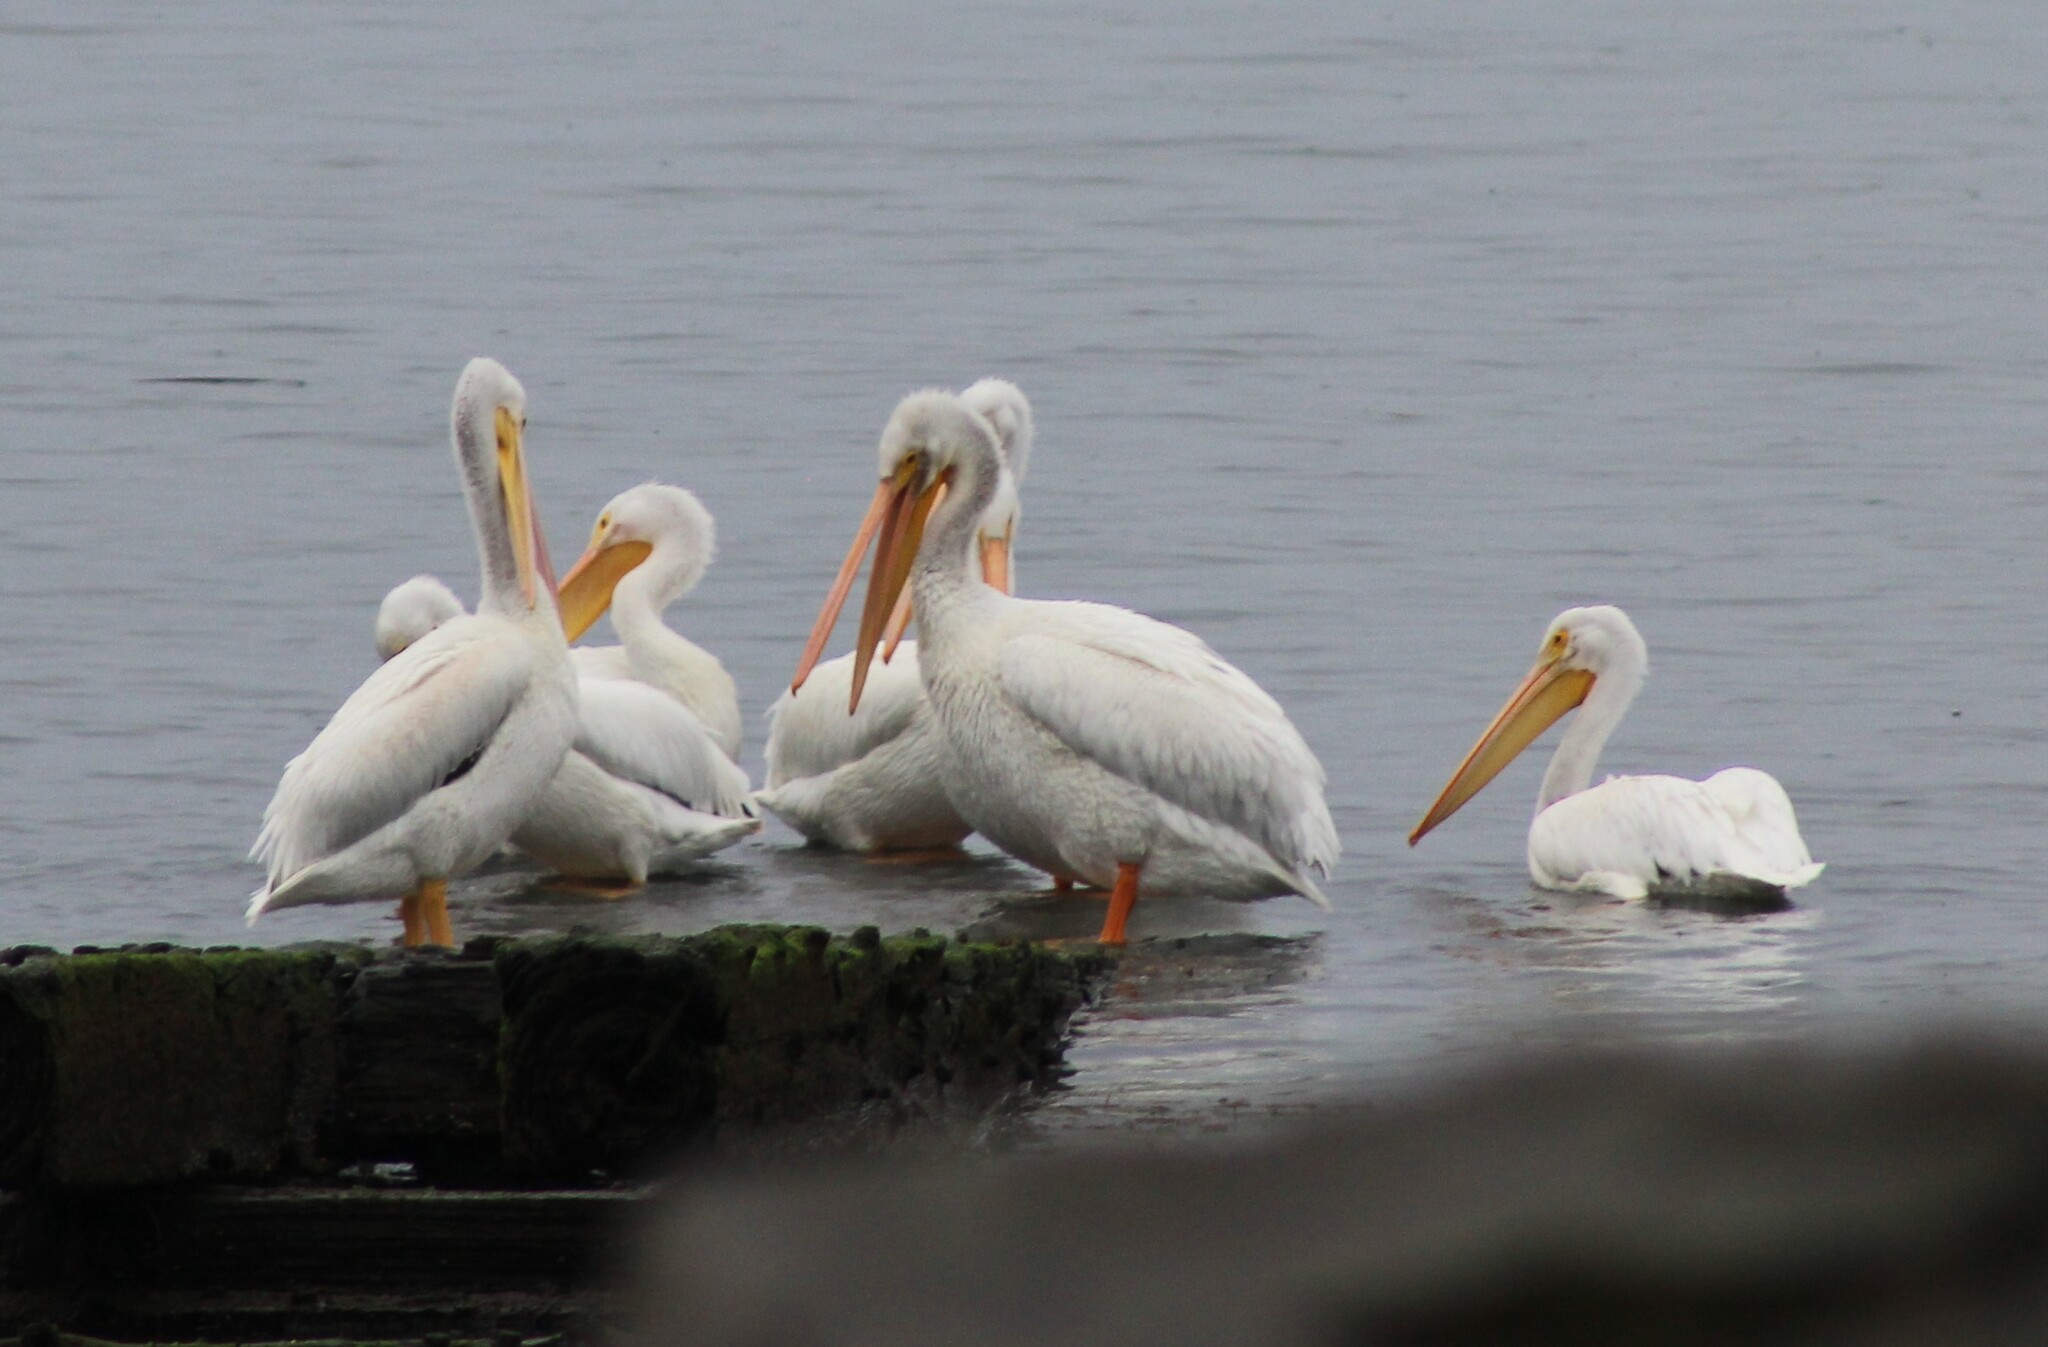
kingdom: Animalia
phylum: Chordata
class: Aves
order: Pelecaniformes
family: Pelecanidae
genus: Pelecanus
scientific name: Pelecanus erythrorhynchos
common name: American white pelican
